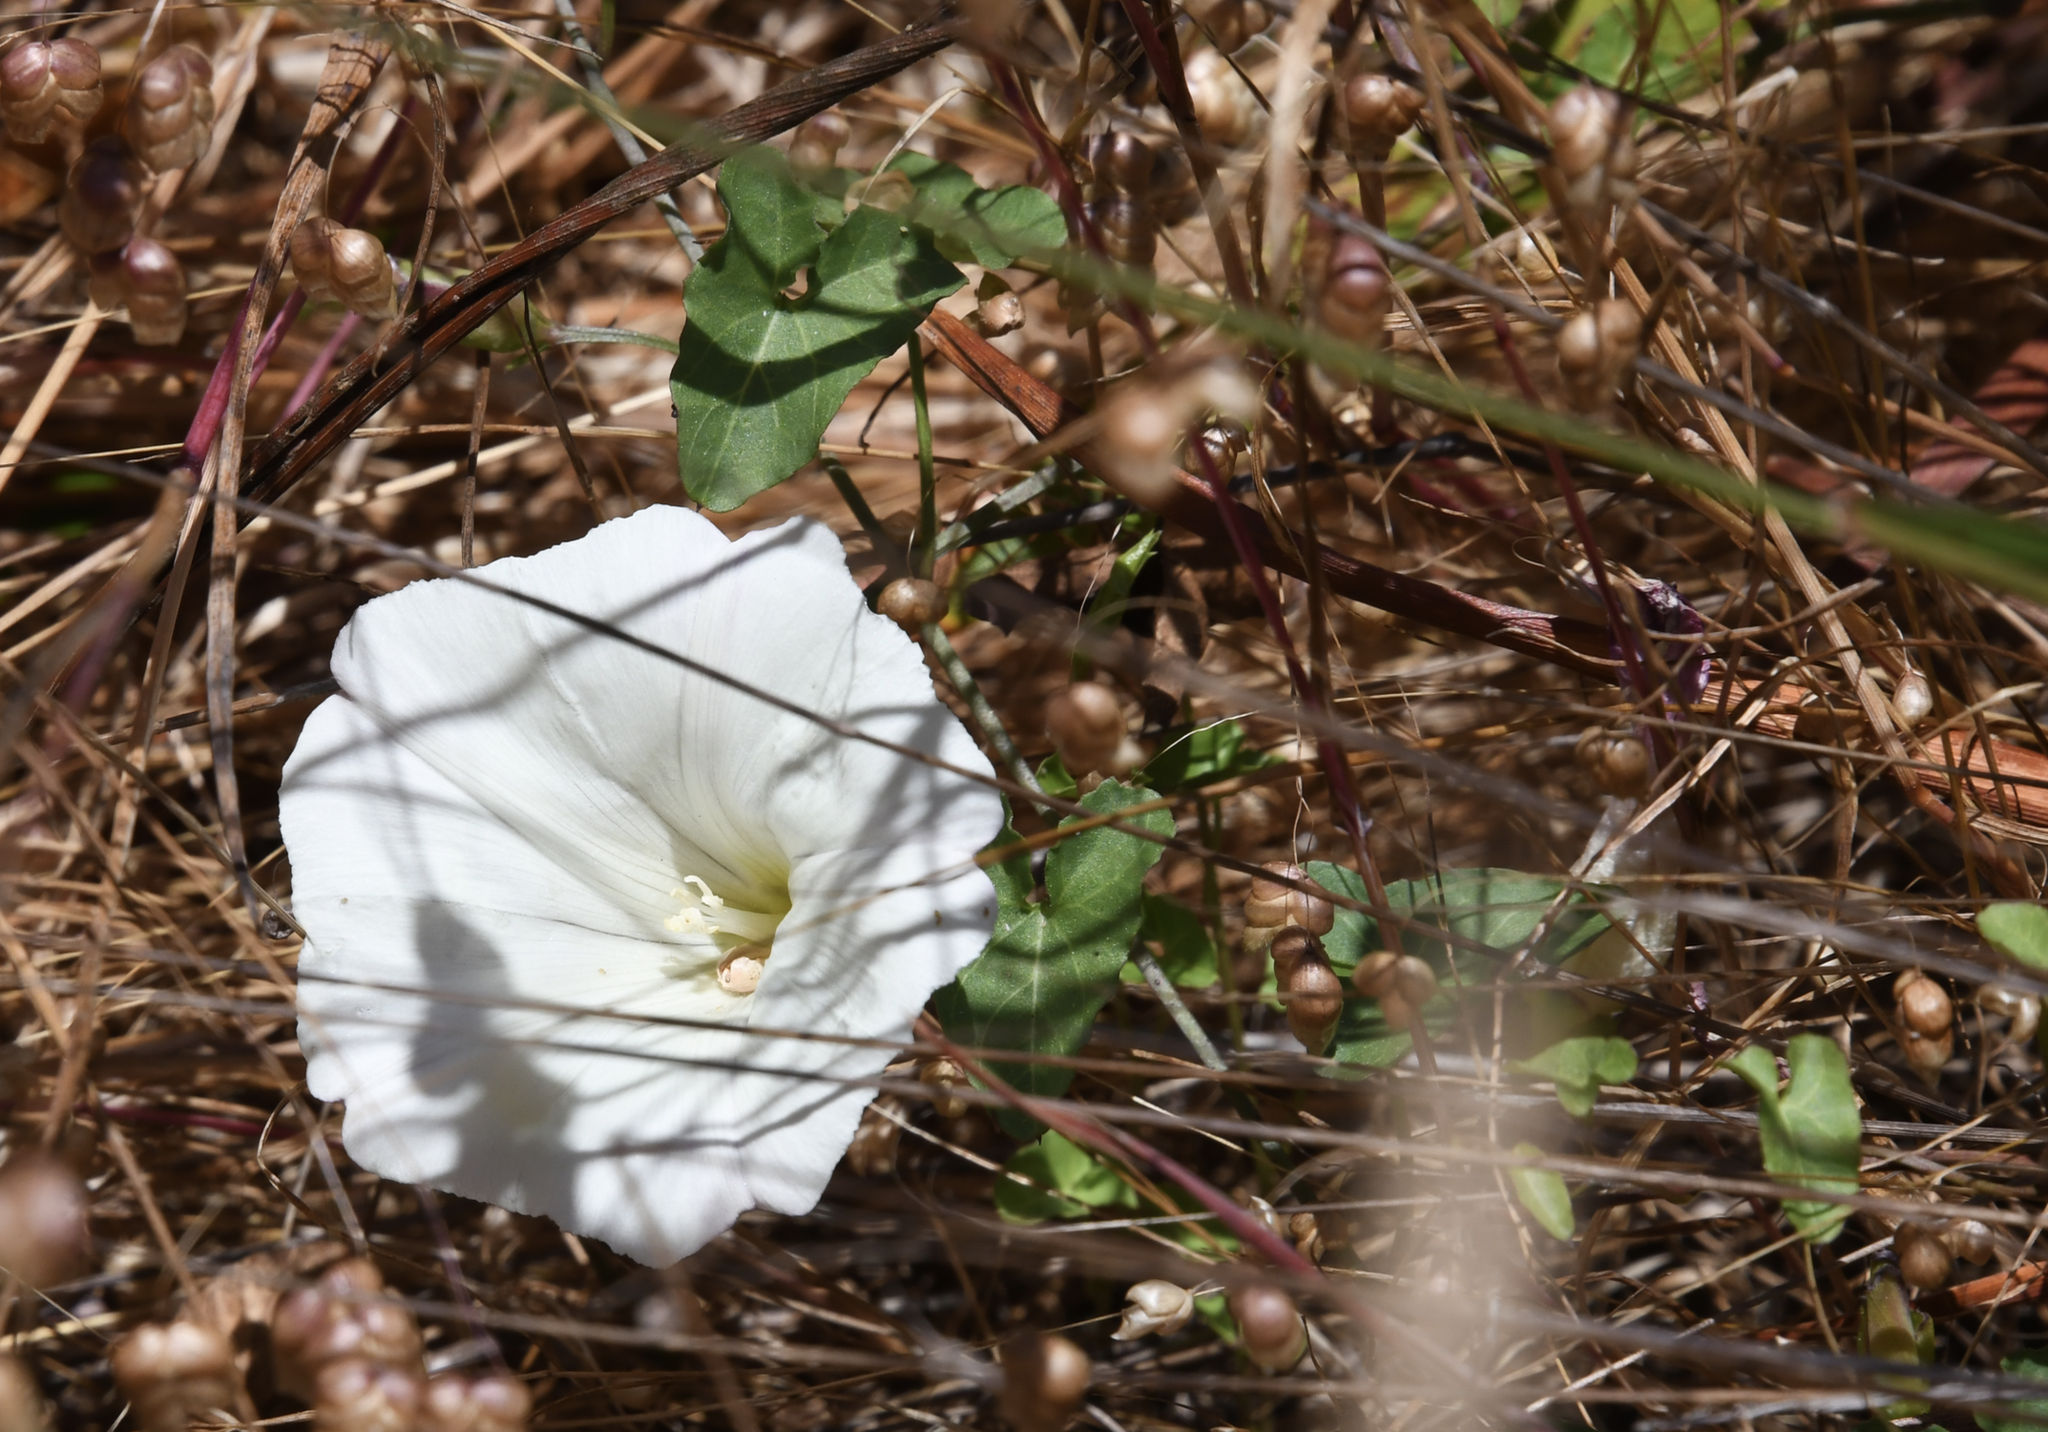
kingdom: Plantae
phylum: Tracheophyta
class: Magnoliopsida
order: Solanales
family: Convolvulaceae
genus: Calystegia
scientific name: Calystegia purpurata
